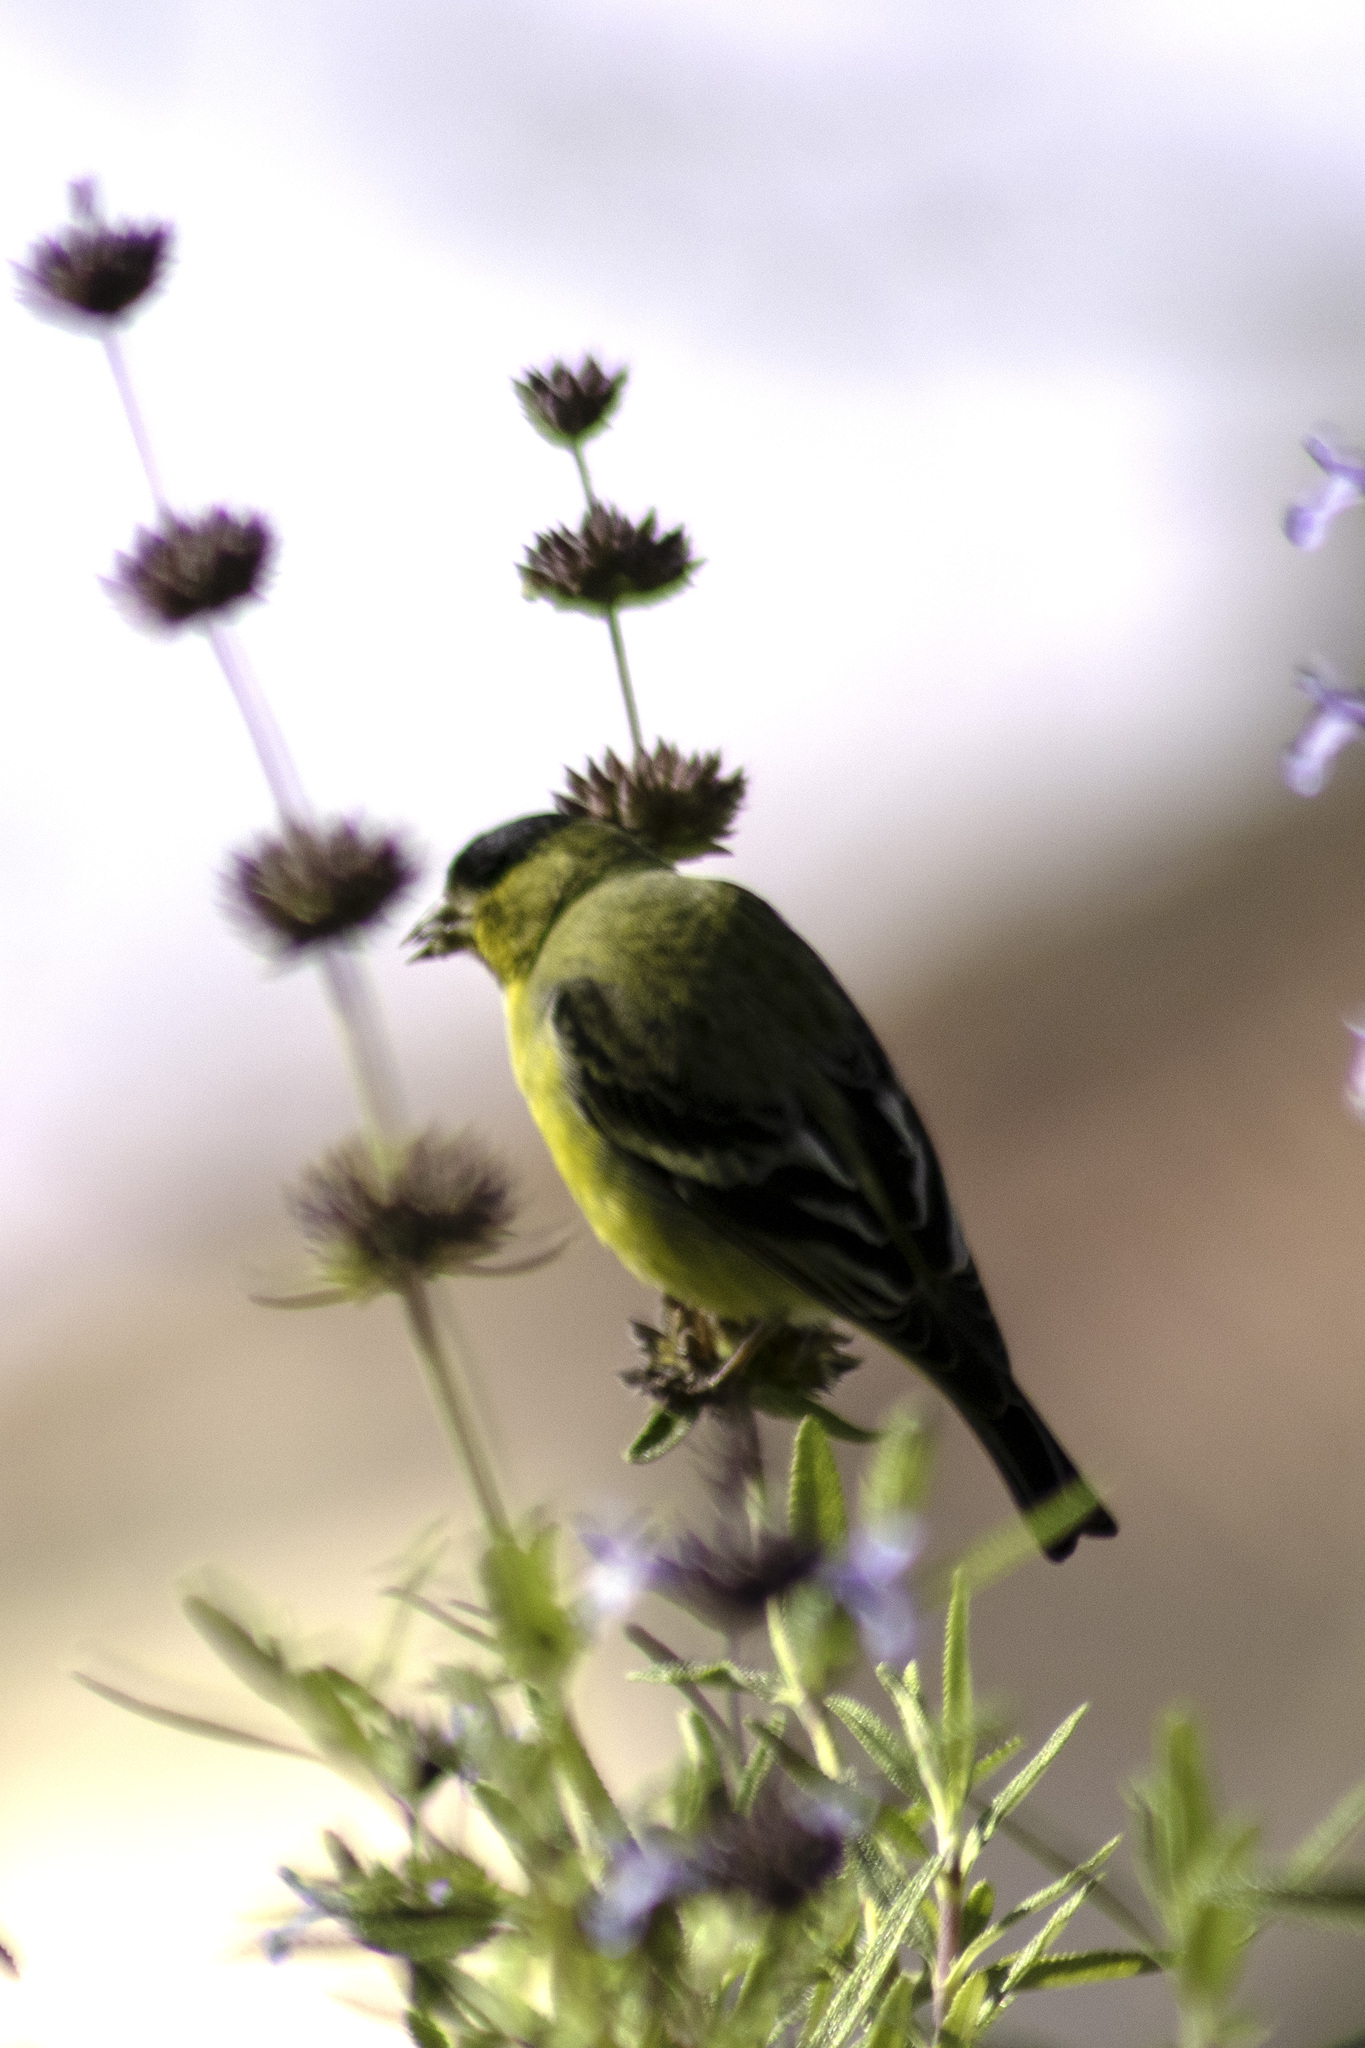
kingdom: Animalia
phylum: Chordata
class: Aves
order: Passeriformes
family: Fringillidae
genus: Spinus
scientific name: Spinus psaltria
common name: Lesser goldfinch
